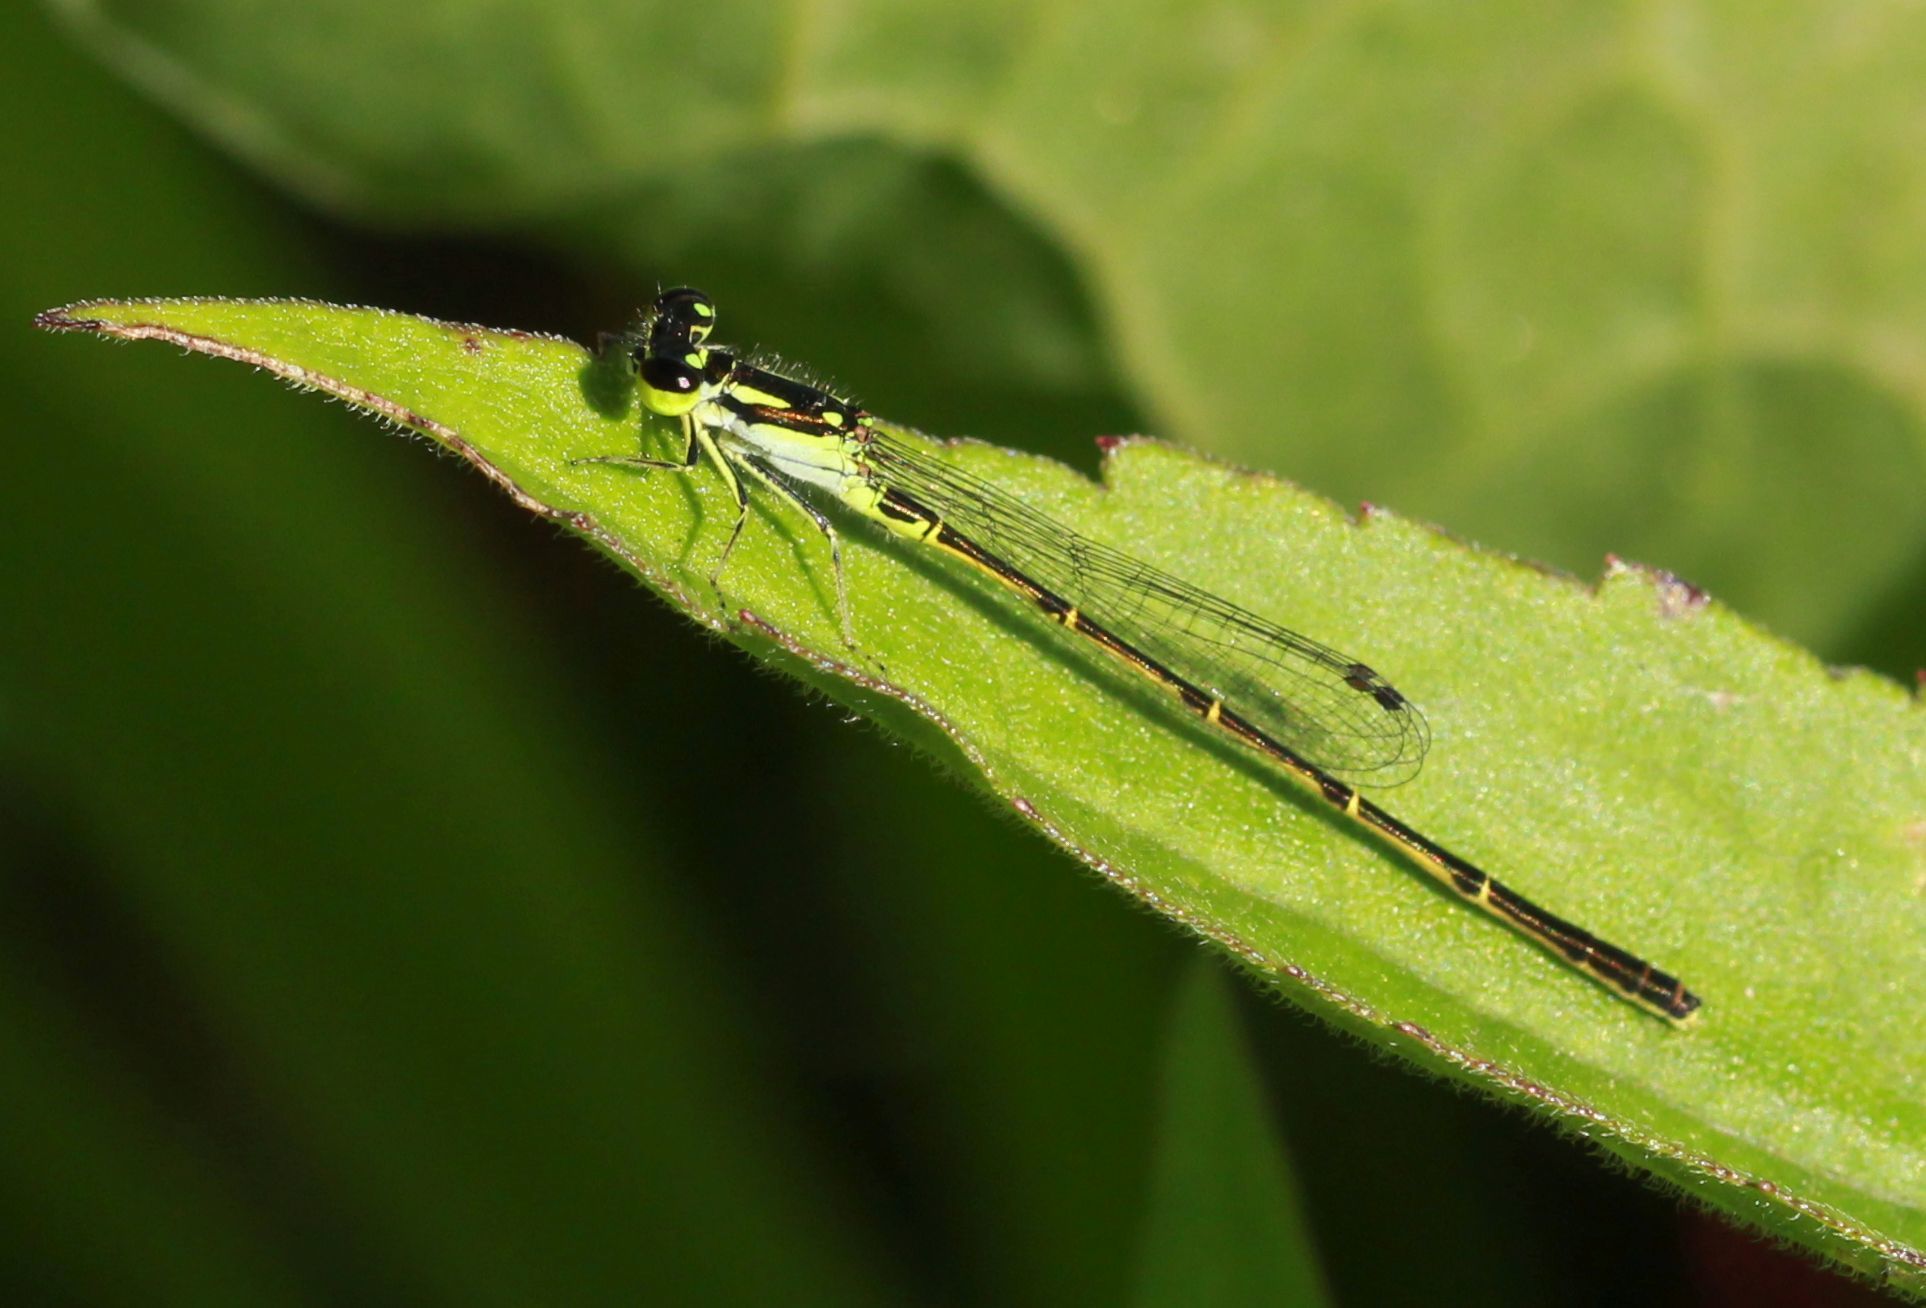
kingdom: Animalia
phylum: Arthropoda
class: Insecta
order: Odonata
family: Coenagrionidae
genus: Ischnura
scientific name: Ischnura posita
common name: Fragile forktail
